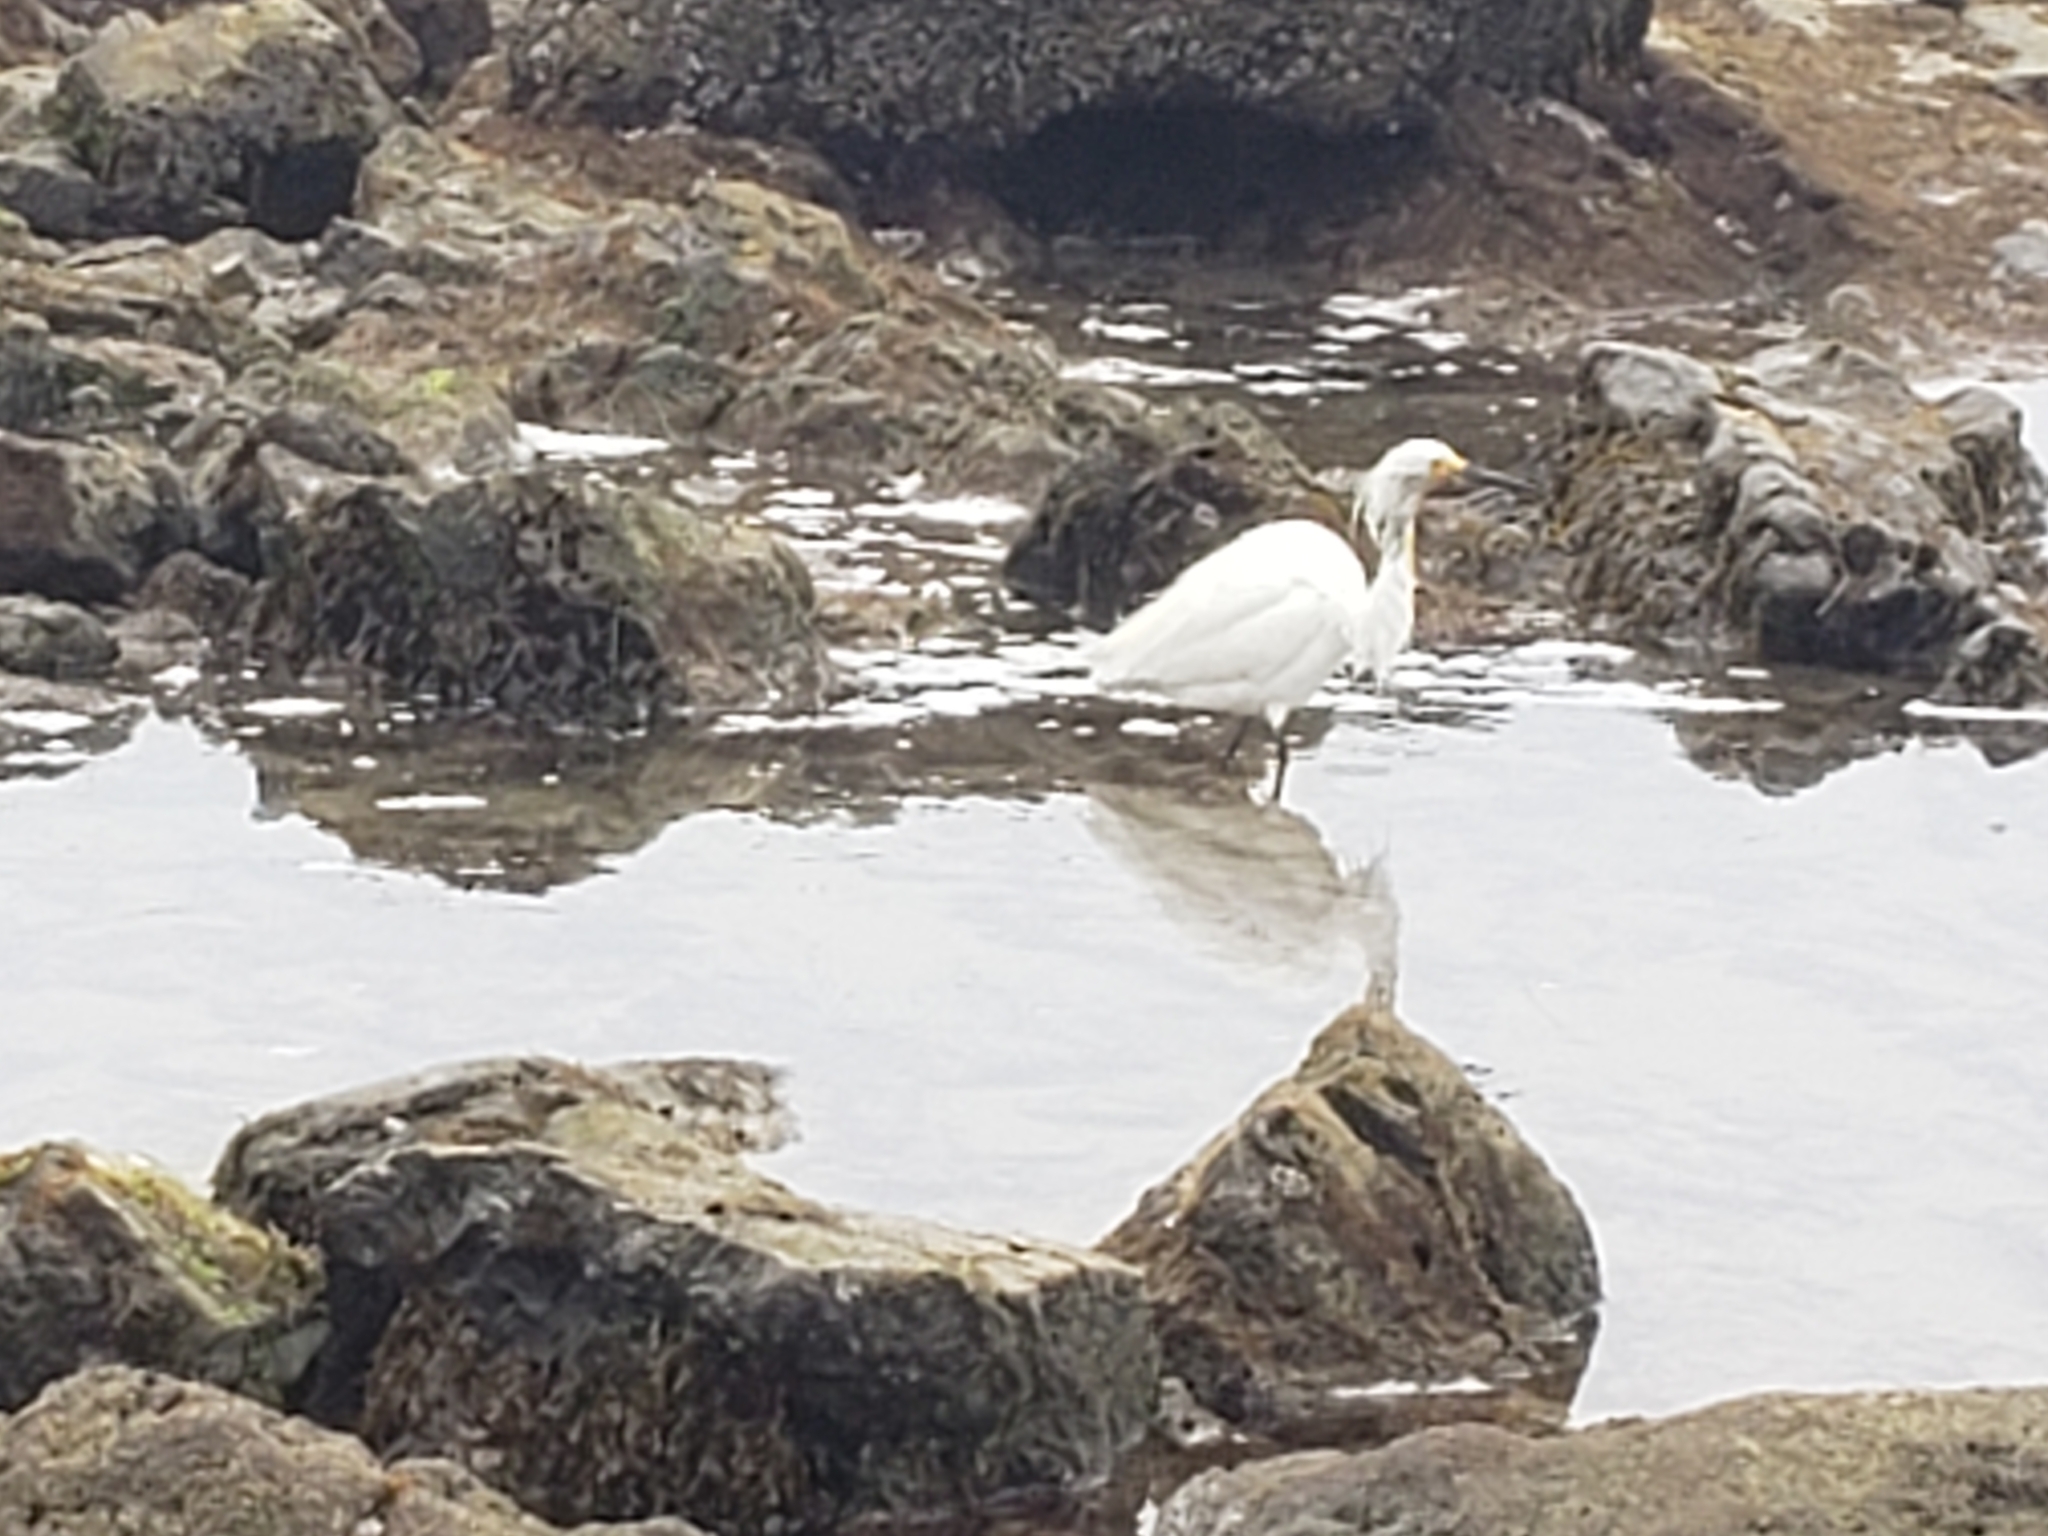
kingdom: Animalia
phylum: Chordata
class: Aves
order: Pelecaniformes
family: Ardeidae
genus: Egretta
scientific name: Egretta thula
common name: Snowy egret
